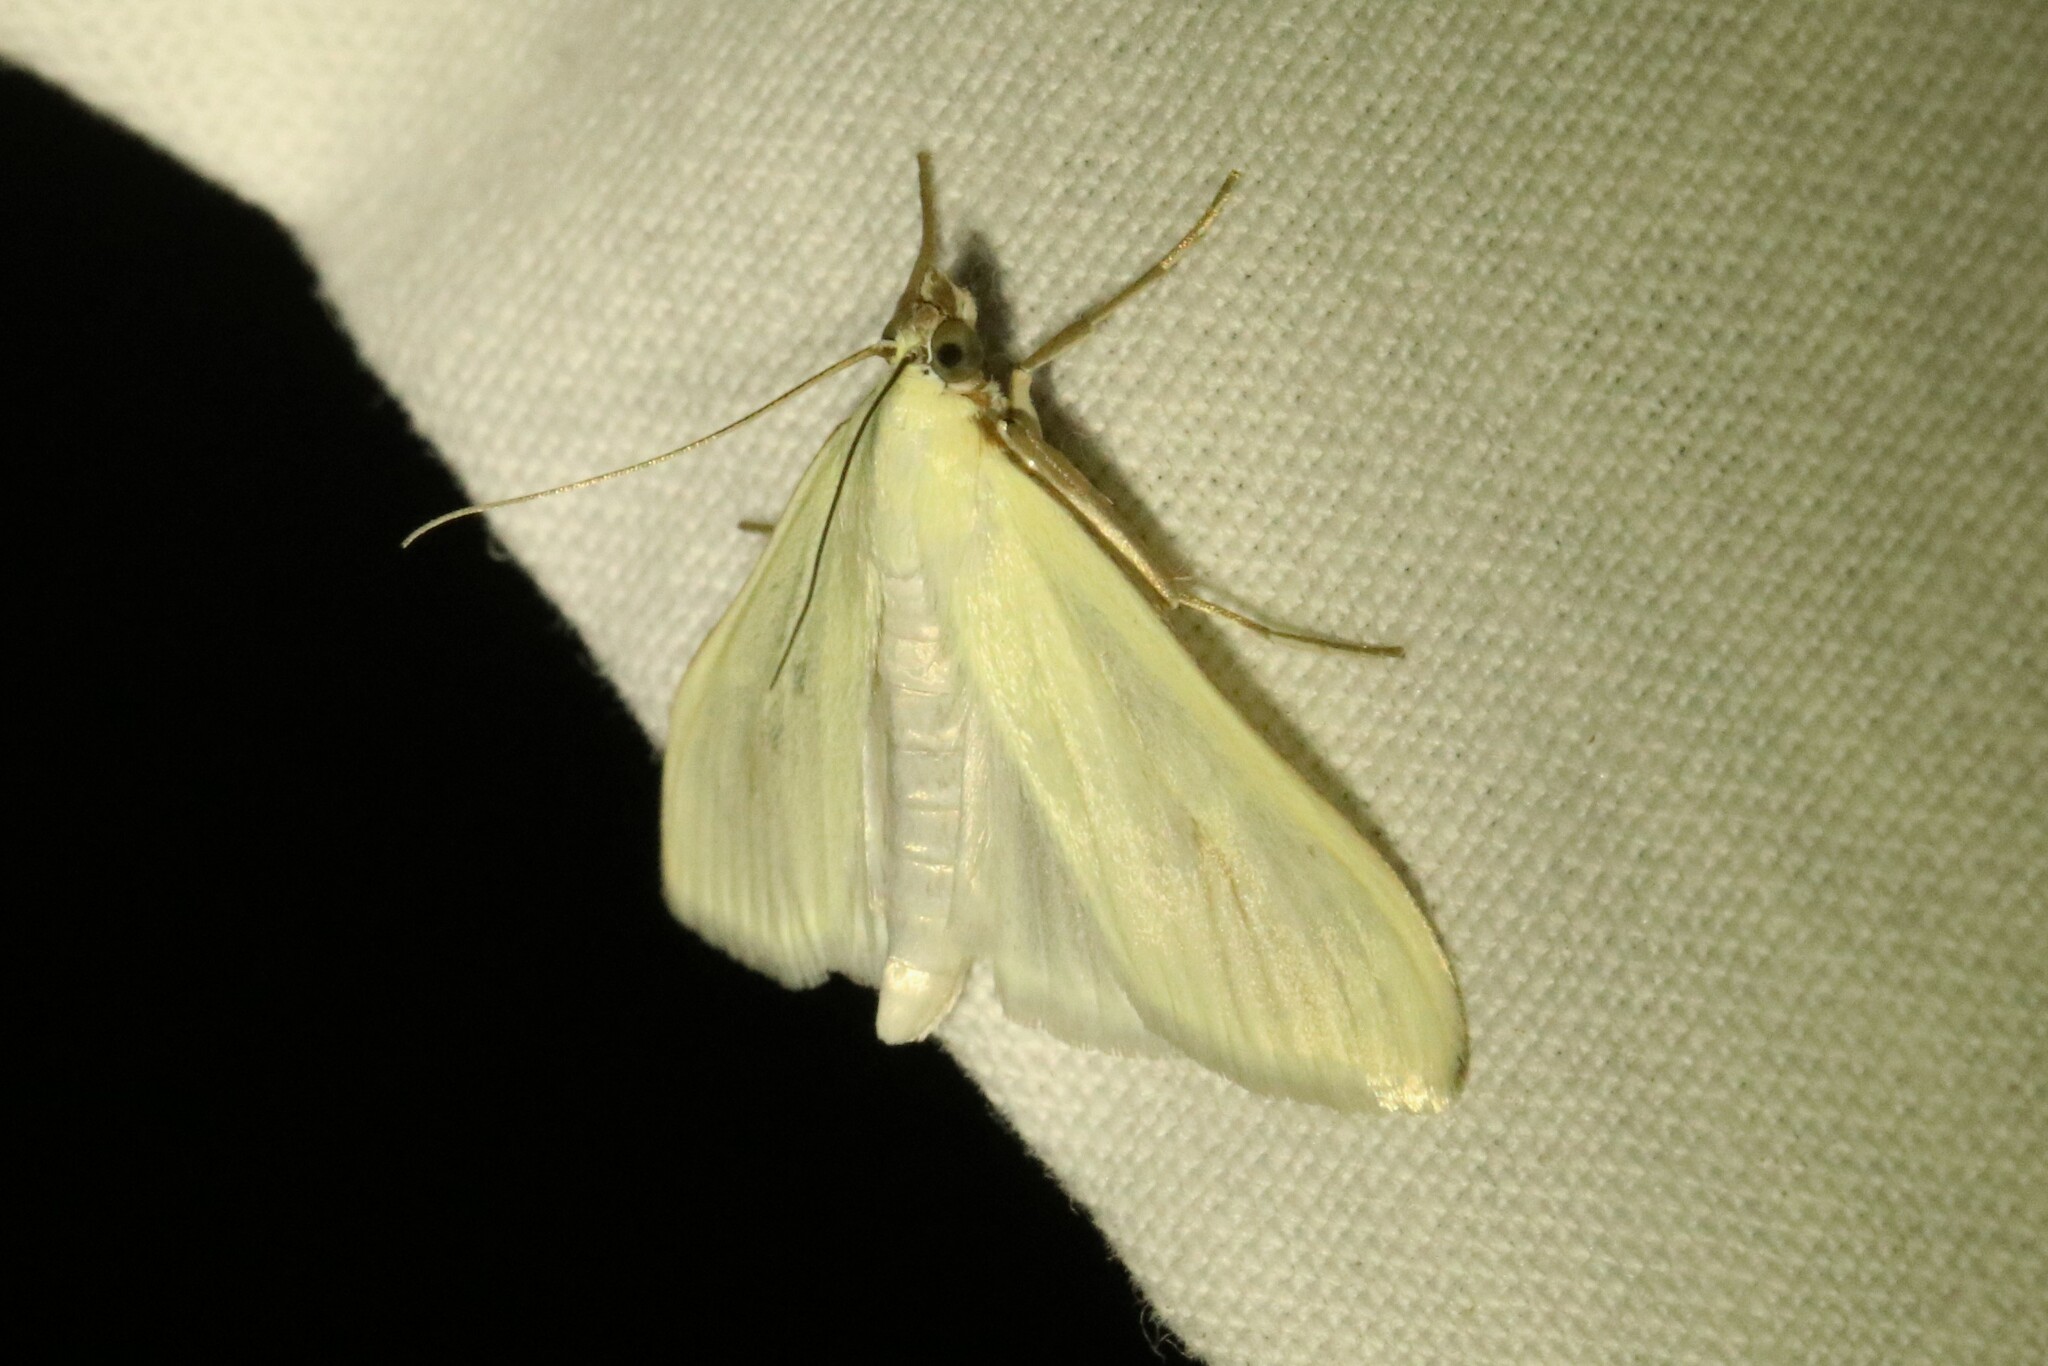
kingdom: Animalia
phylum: Arthropoda
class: Insecta
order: Lepidoptera
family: Crambidae
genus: Sitochroa
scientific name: Sitochroa palealis
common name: Greenish-yellow sitochroa moth
